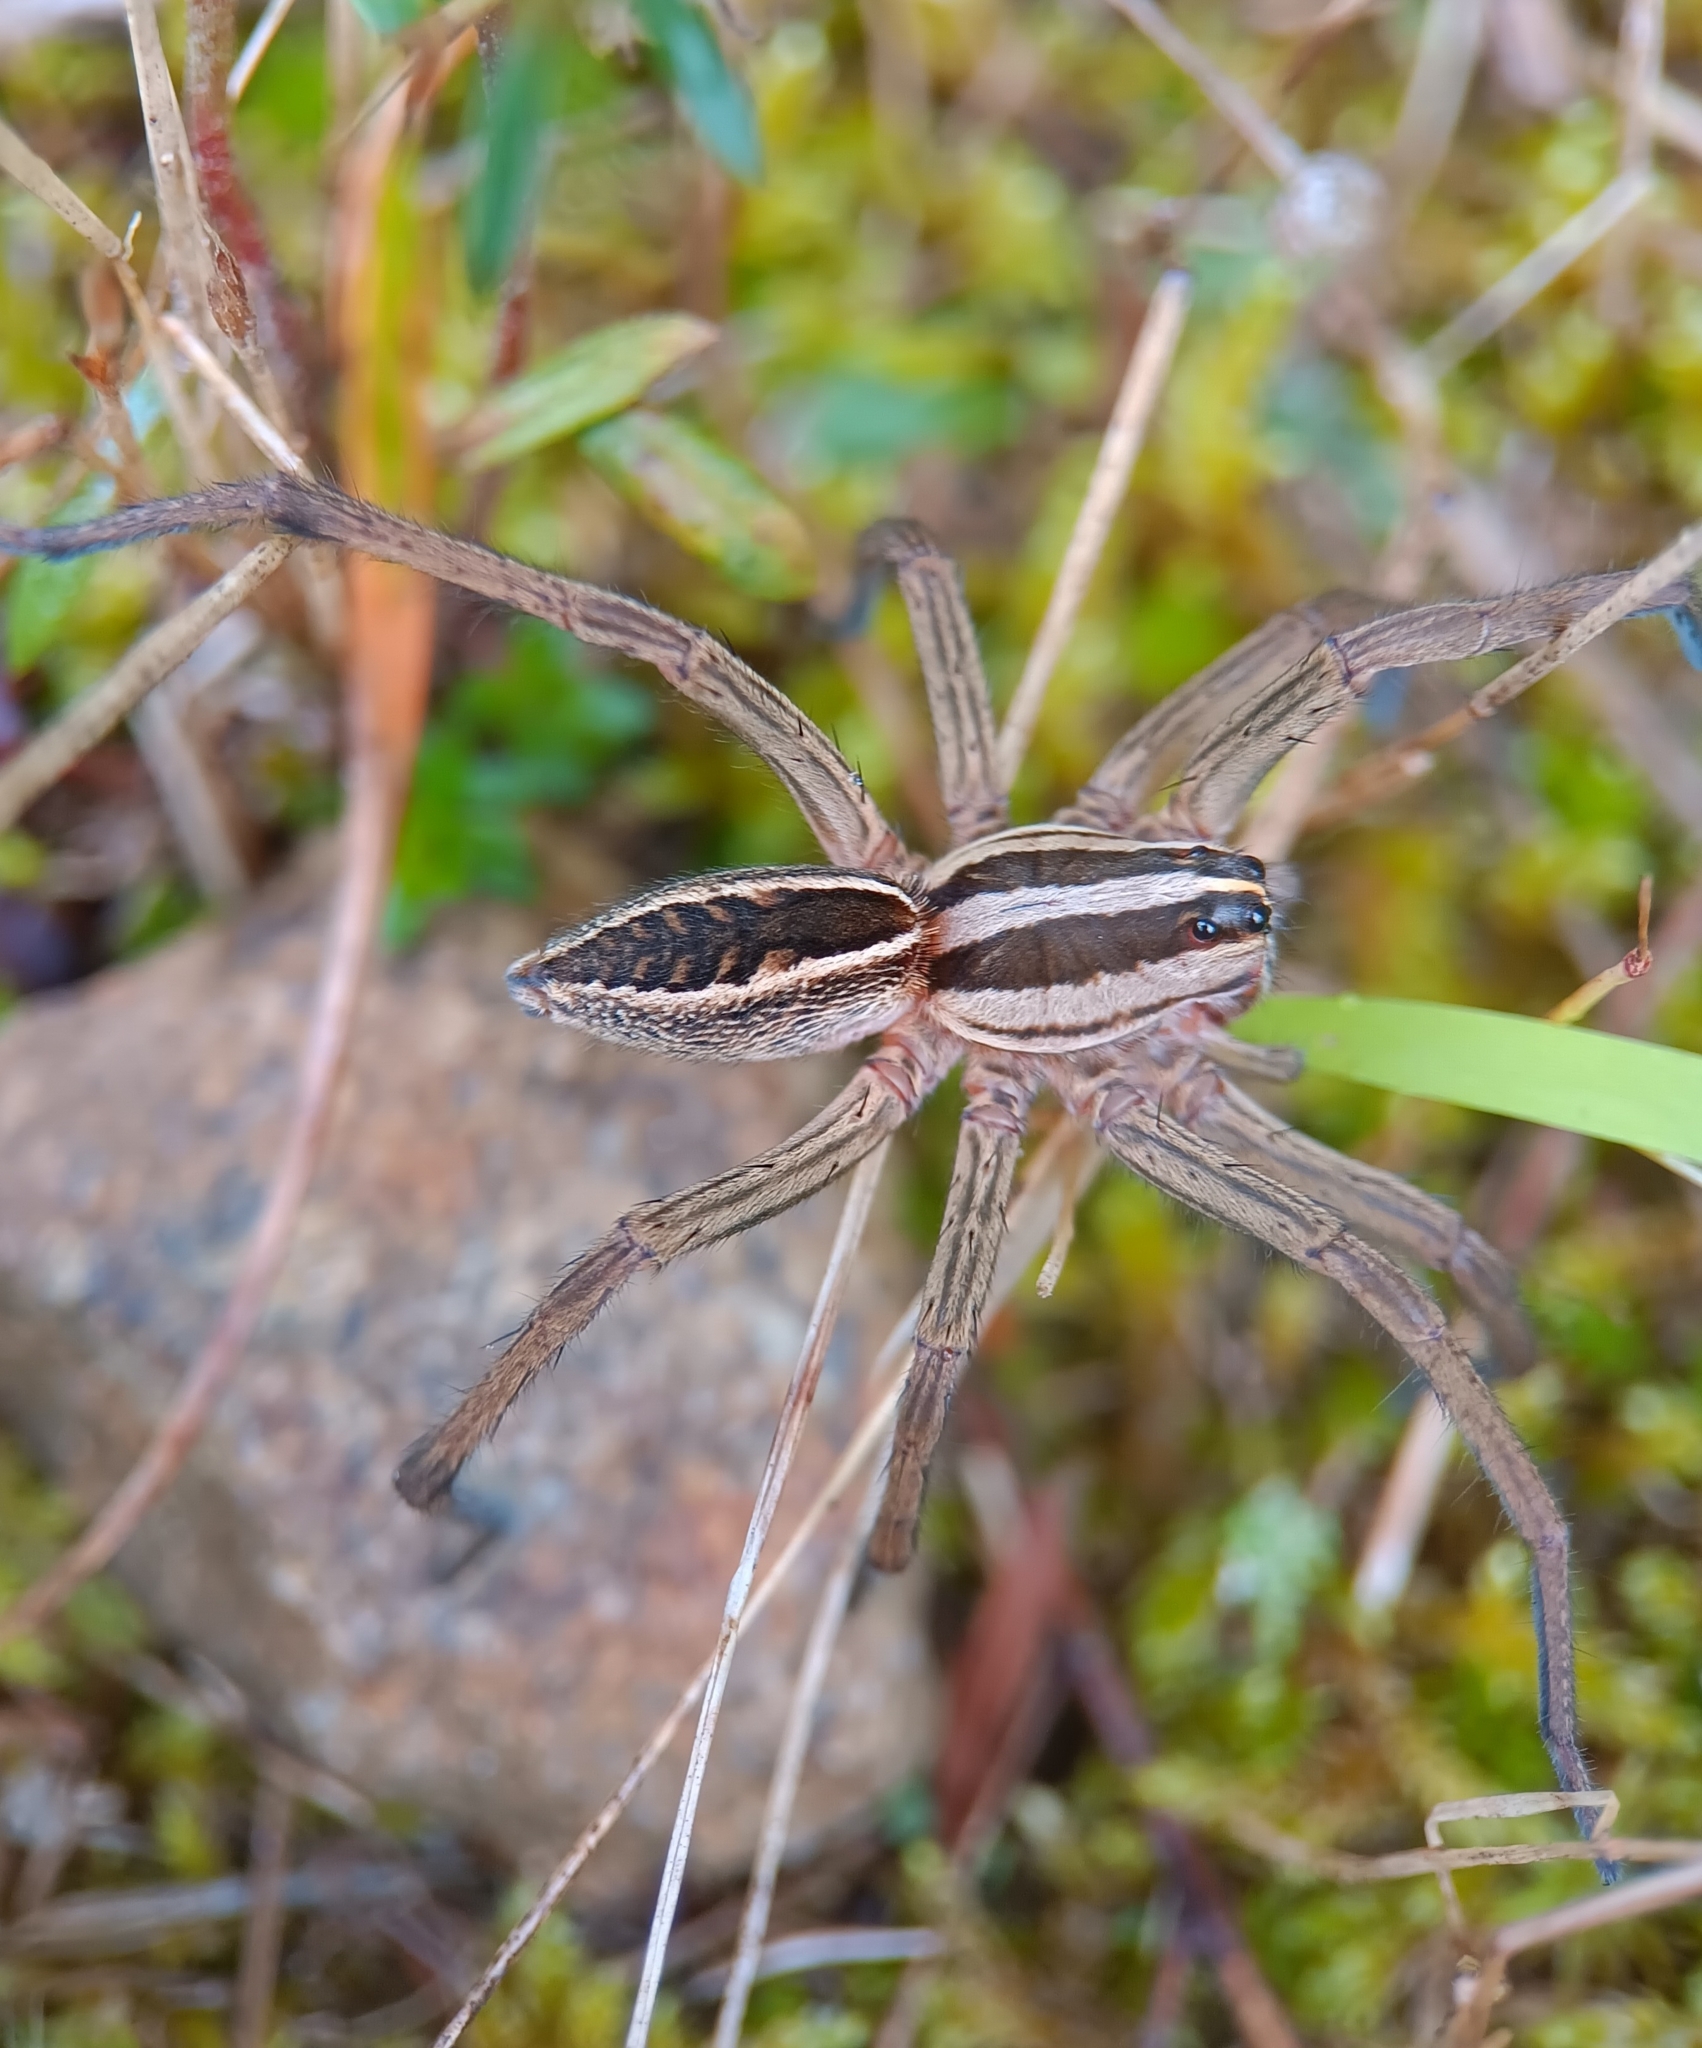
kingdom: Animalia
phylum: Arthropoda
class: Arachnida
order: Araneae
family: Lycosidae
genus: Rabidosa
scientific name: Rabidosa rabida
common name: Rabid wolf spider
